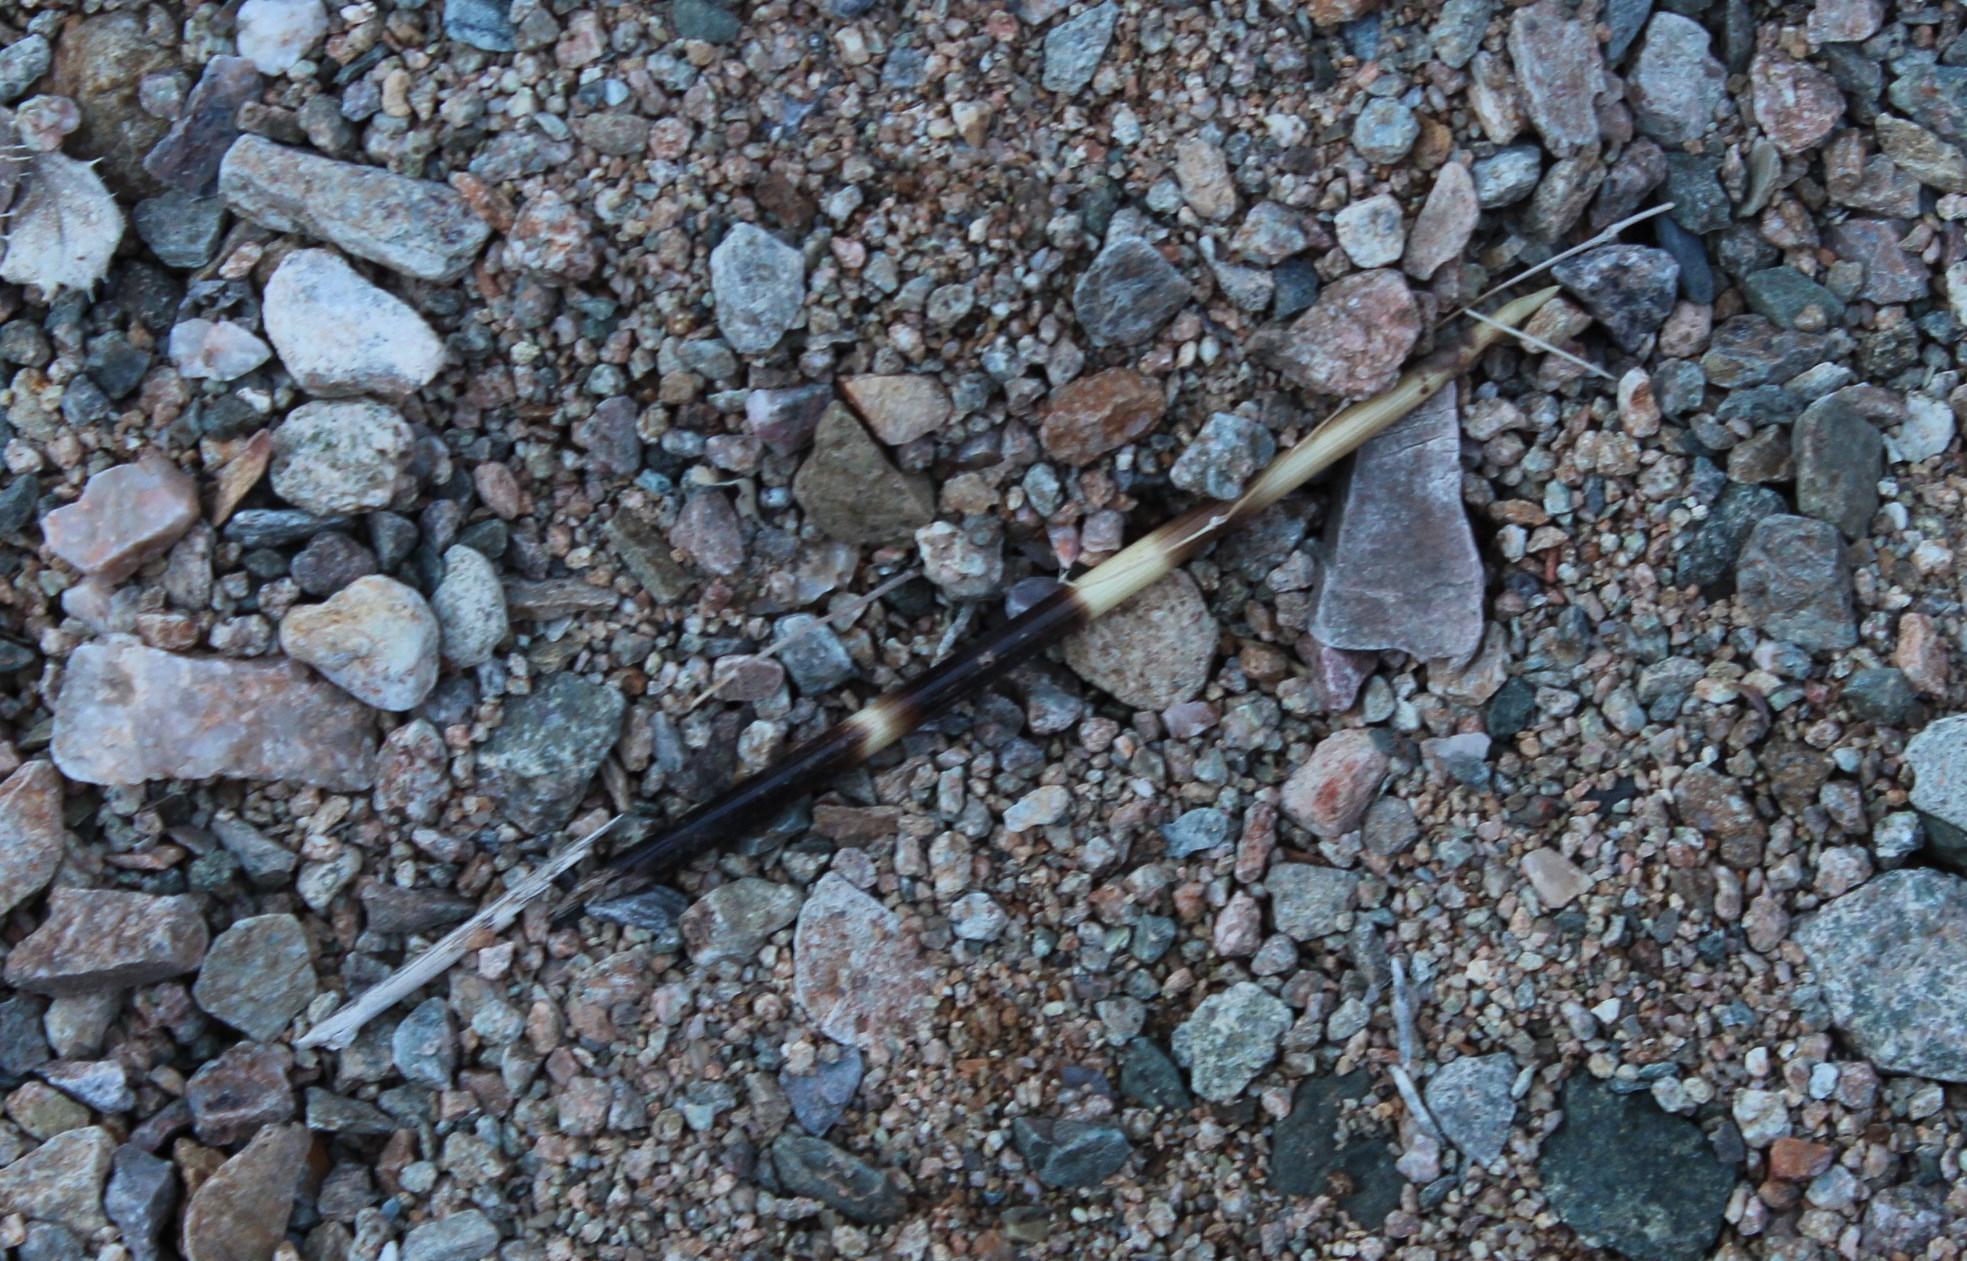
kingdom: Animalia
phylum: Chordata
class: Mammalia
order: Rodentia
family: Hystricidae
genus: Hystrix
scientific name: Hystrix africaeaustralis
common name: Cape porcupine
